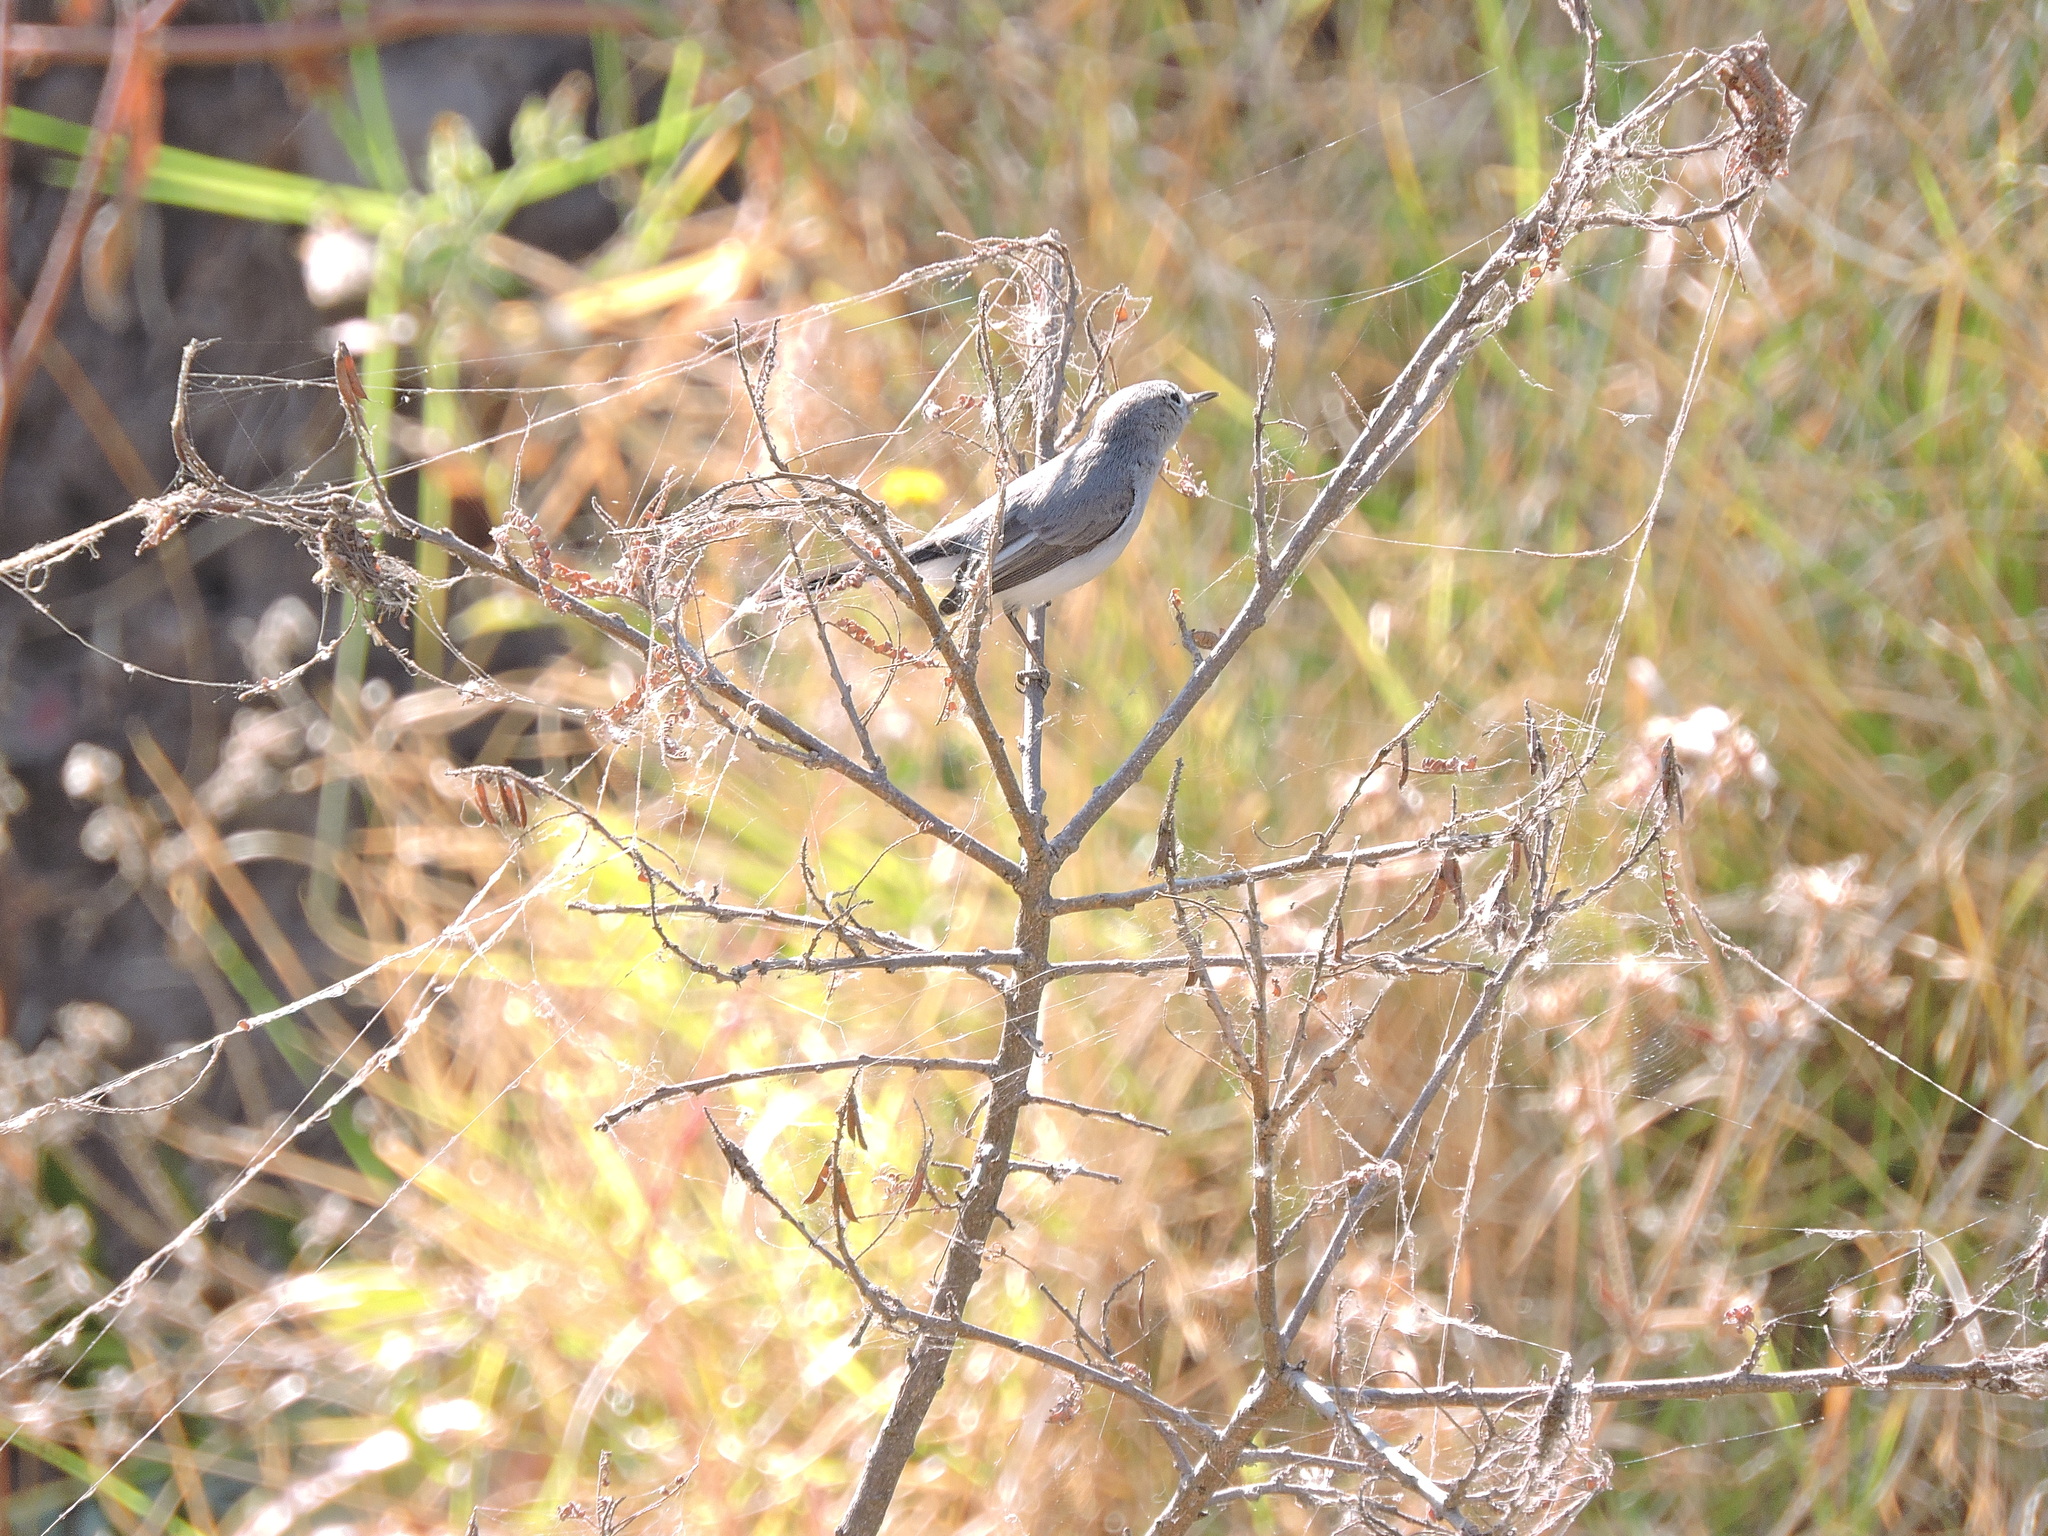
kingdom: Animalia
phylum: Chordata
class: Aves
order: Passeriformes
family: Polioptilidae
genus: Polioptila
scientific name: Polioptila caerulea
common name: Blue-gray gnatcatcher
